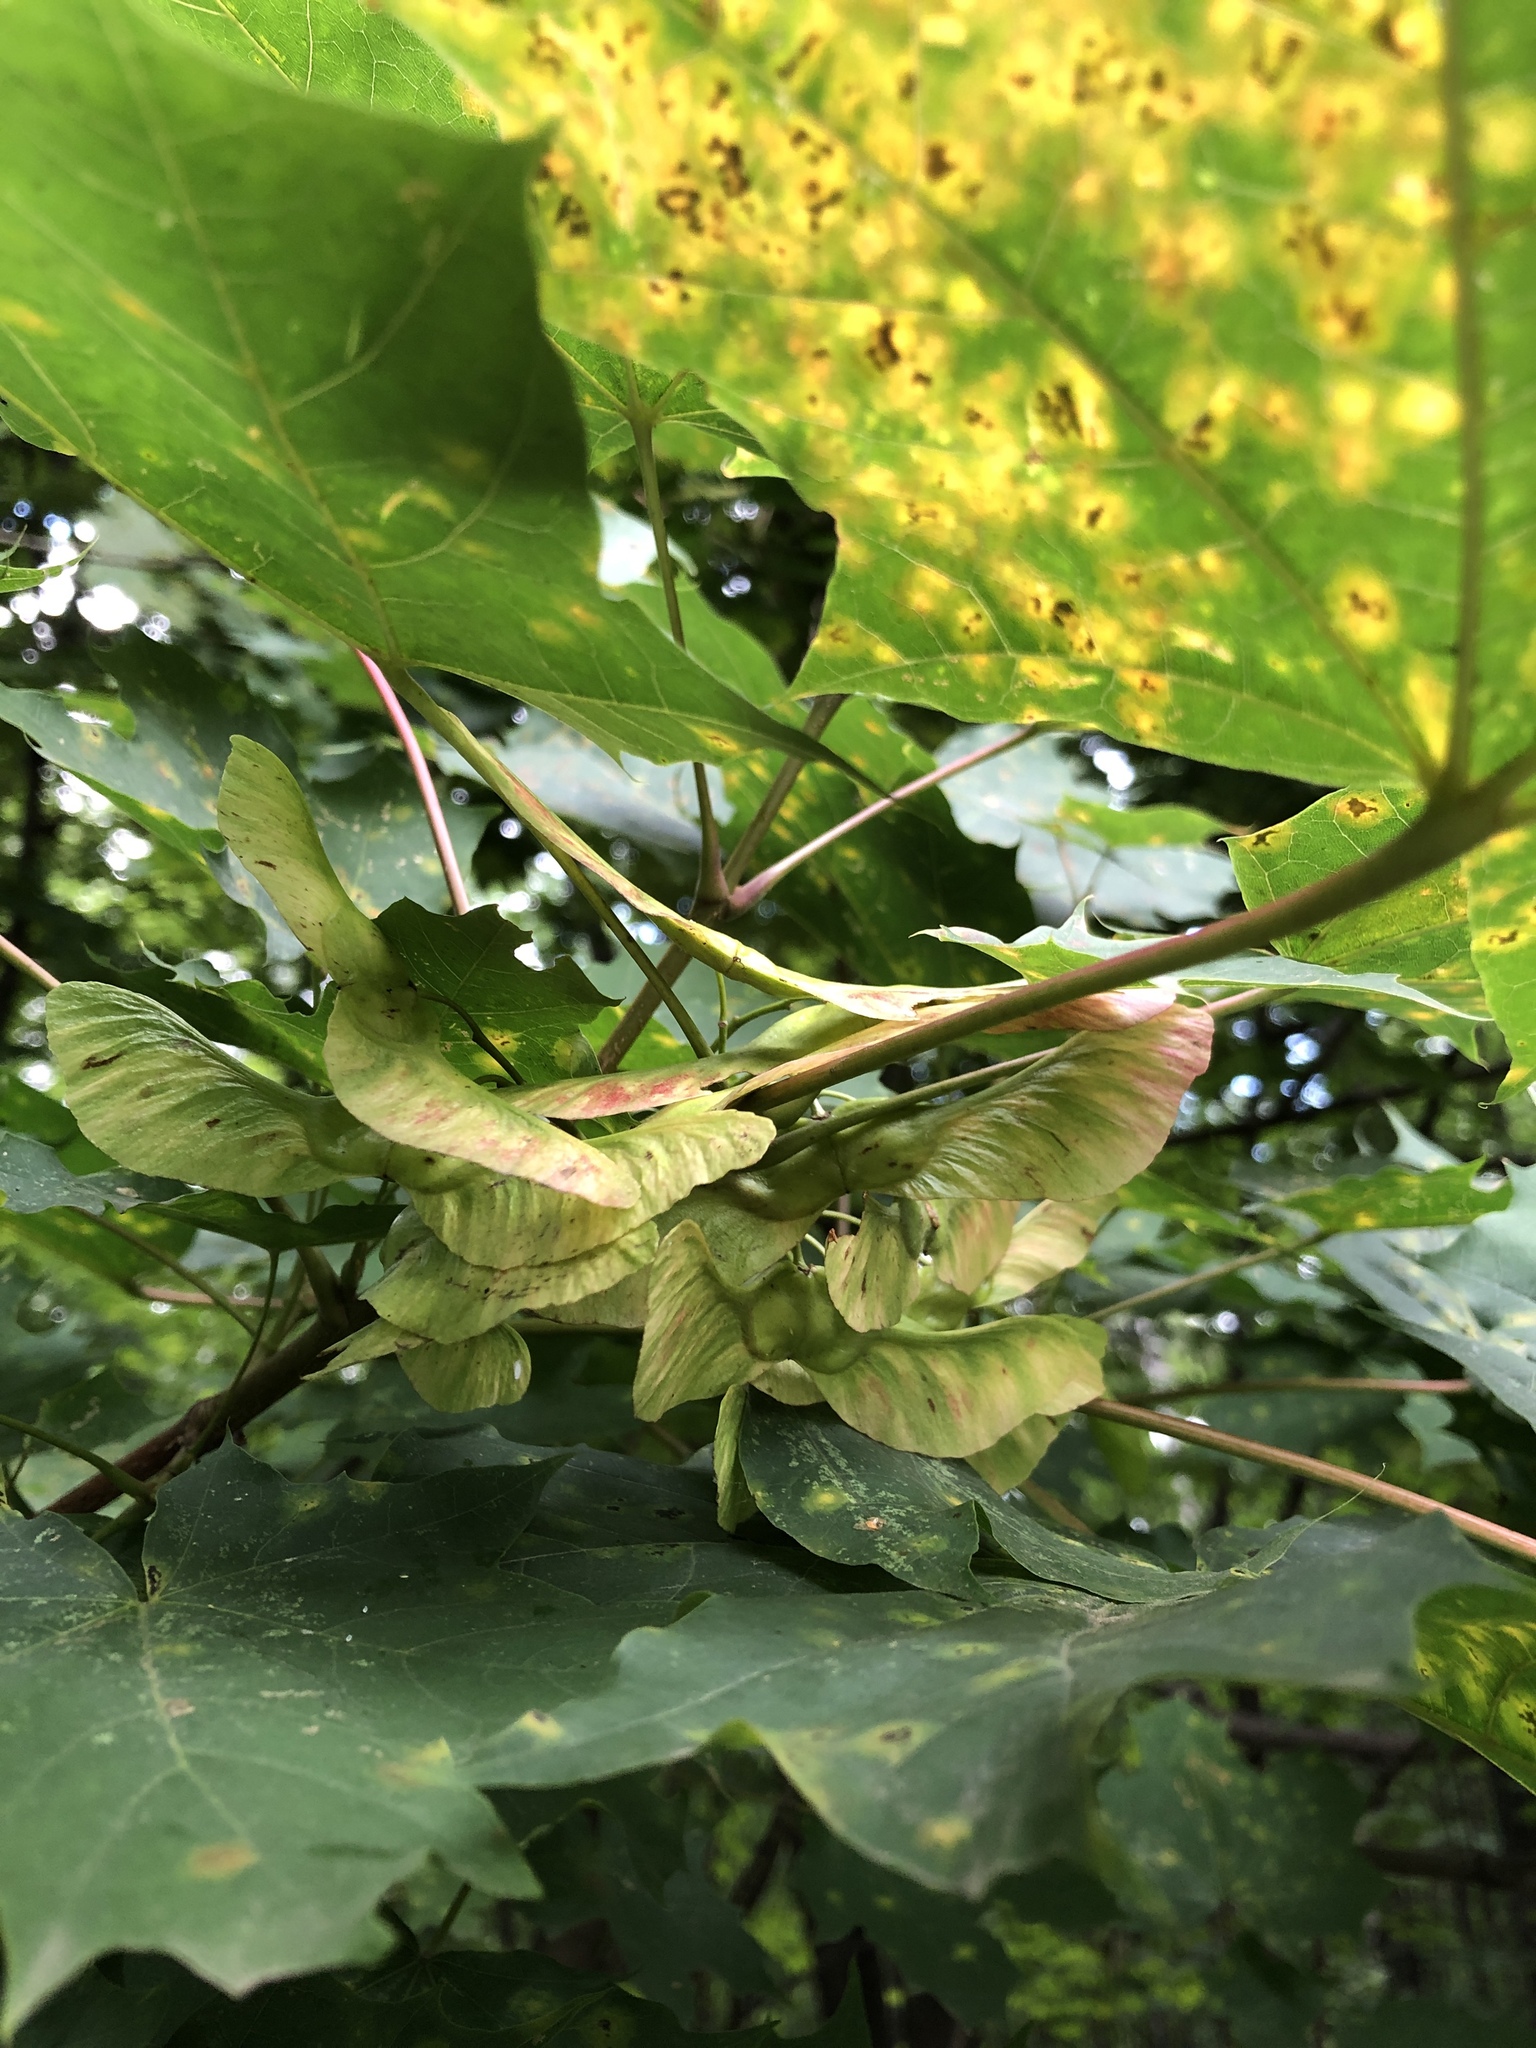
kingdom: Plantae
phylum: Tracheophyta
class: Magnoliopsida
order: Sapindales
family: Sapindaceae
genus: Acer
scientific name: Acer platanoides
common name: Norway maple
